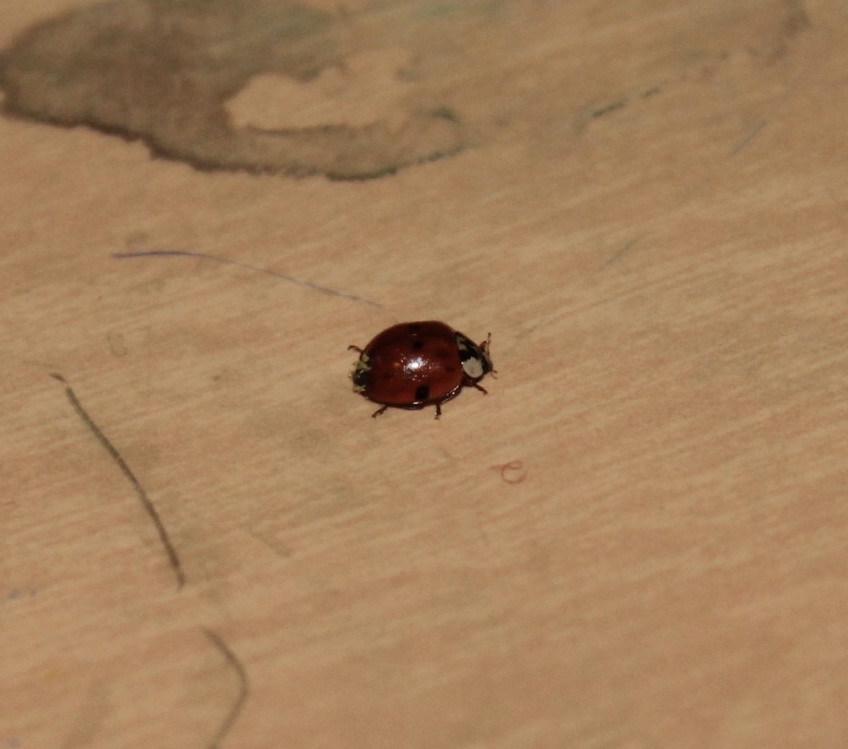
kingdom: Fungi
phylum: Ascomycota
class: Laboulbeniomycetes
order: Laboulbeniales
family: Laboulbeniaceae
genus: Hesperomyces
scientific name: Hesperomyces harmoniae
